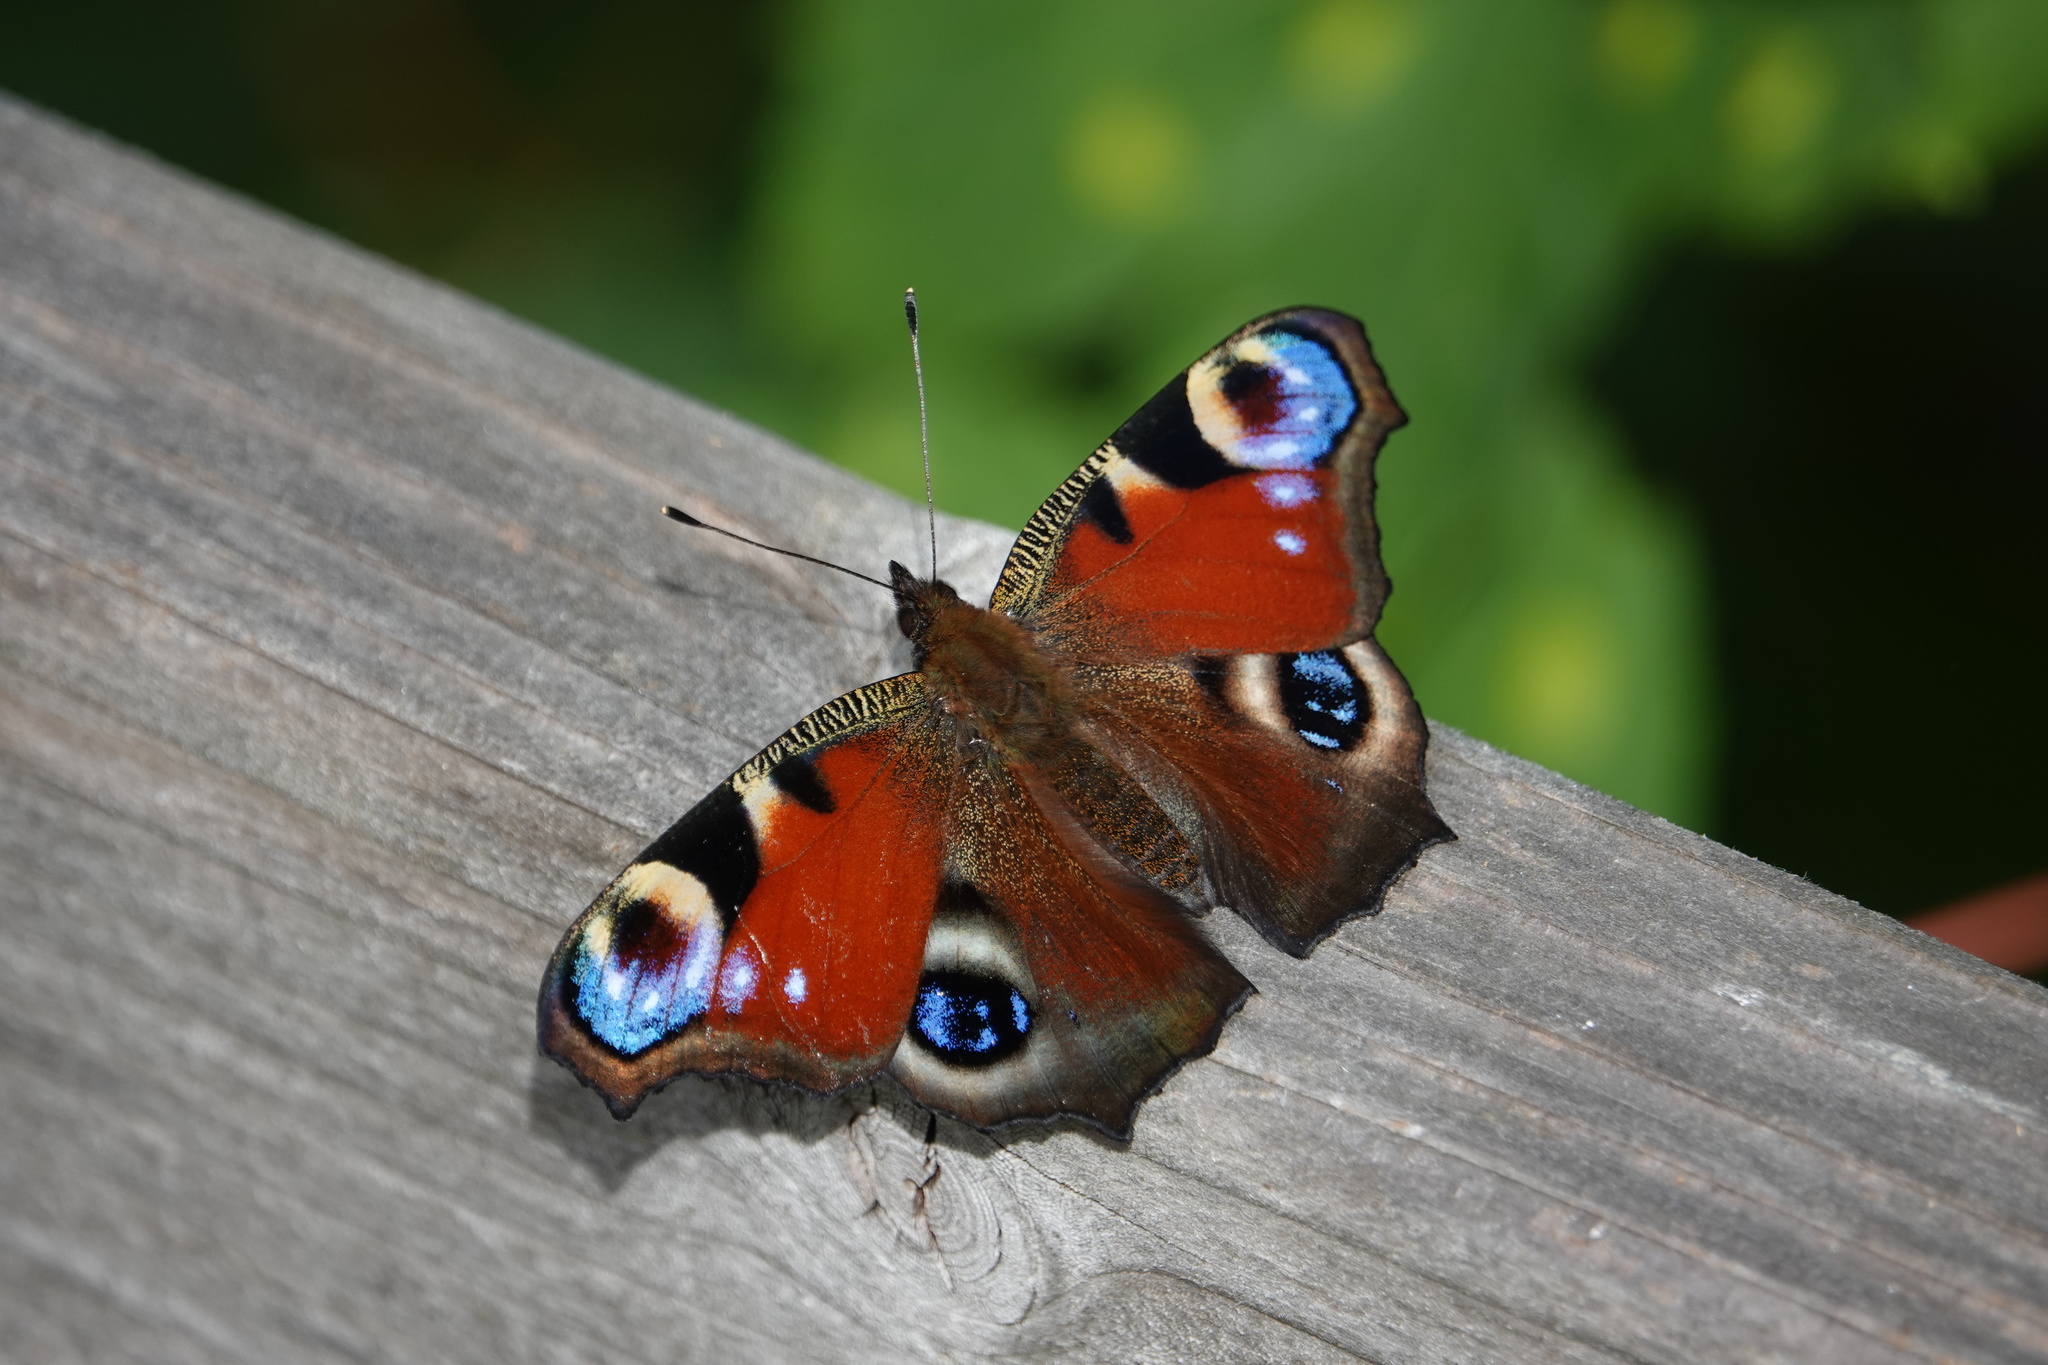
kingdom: Animalia
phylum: Arthropoda
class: Insecta
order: Lepidoptera
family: Nymphalidae
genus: Aglais
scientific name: Aglais io
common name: Peacock
